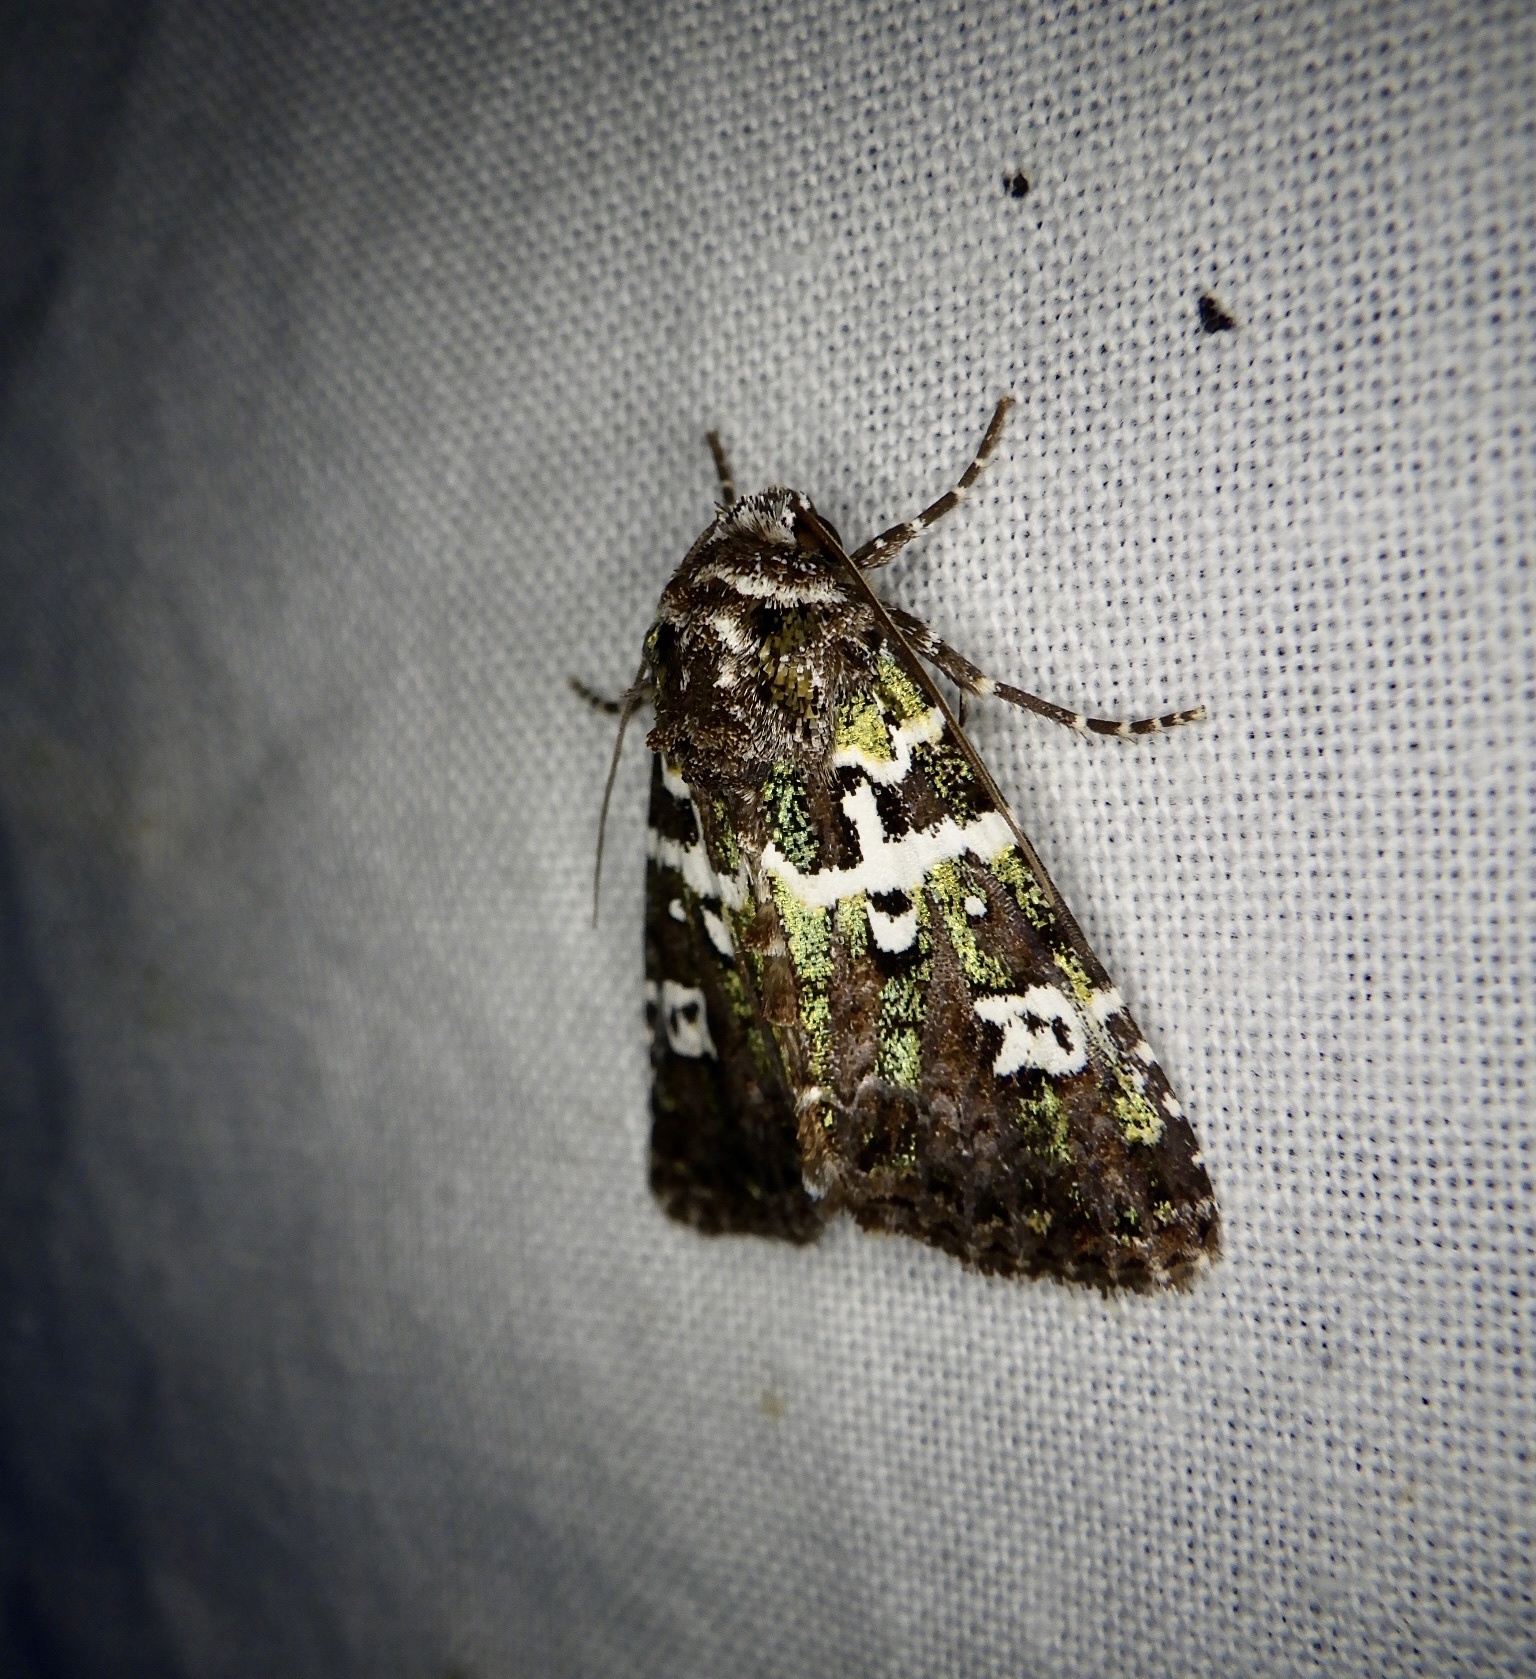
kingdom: Animalia
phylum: Arthropoda
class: Insecta
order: Lepidoptera
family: Noctuidae
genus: Karana
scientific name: Karana laetevirens
